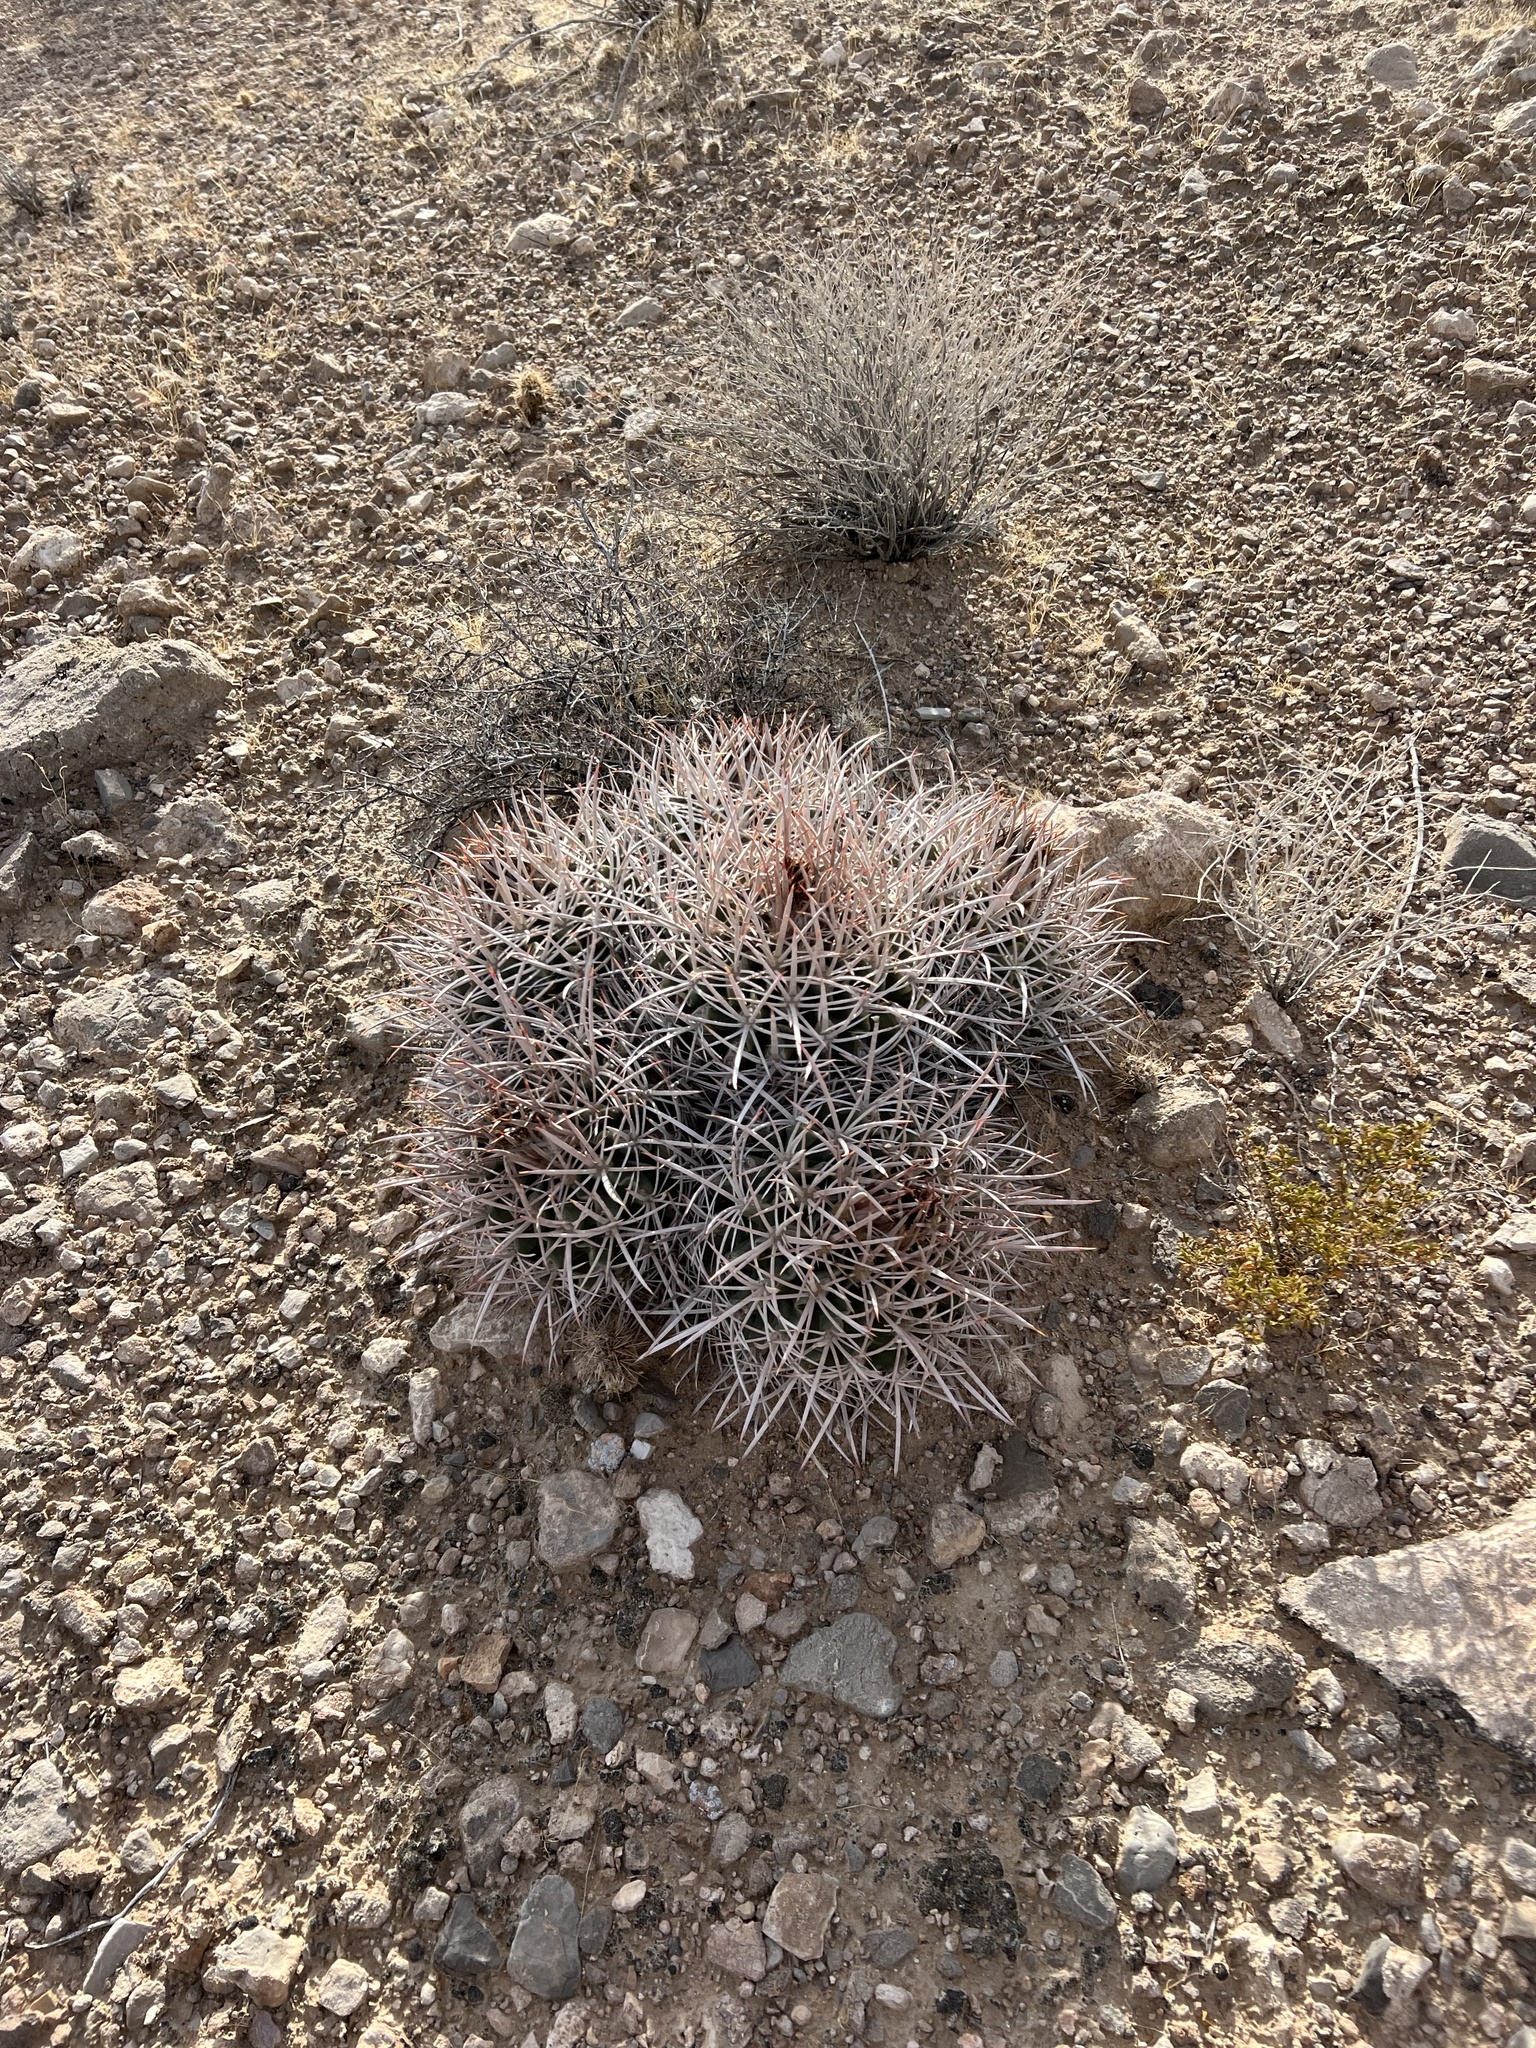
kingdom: Plantae
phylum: Tracheophyta
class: Magnoliopsida
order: Caryophyllales
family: Cactaceae
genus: Echinocactus
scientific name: Echinocactus polycephalus
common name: Cottontop cactus
